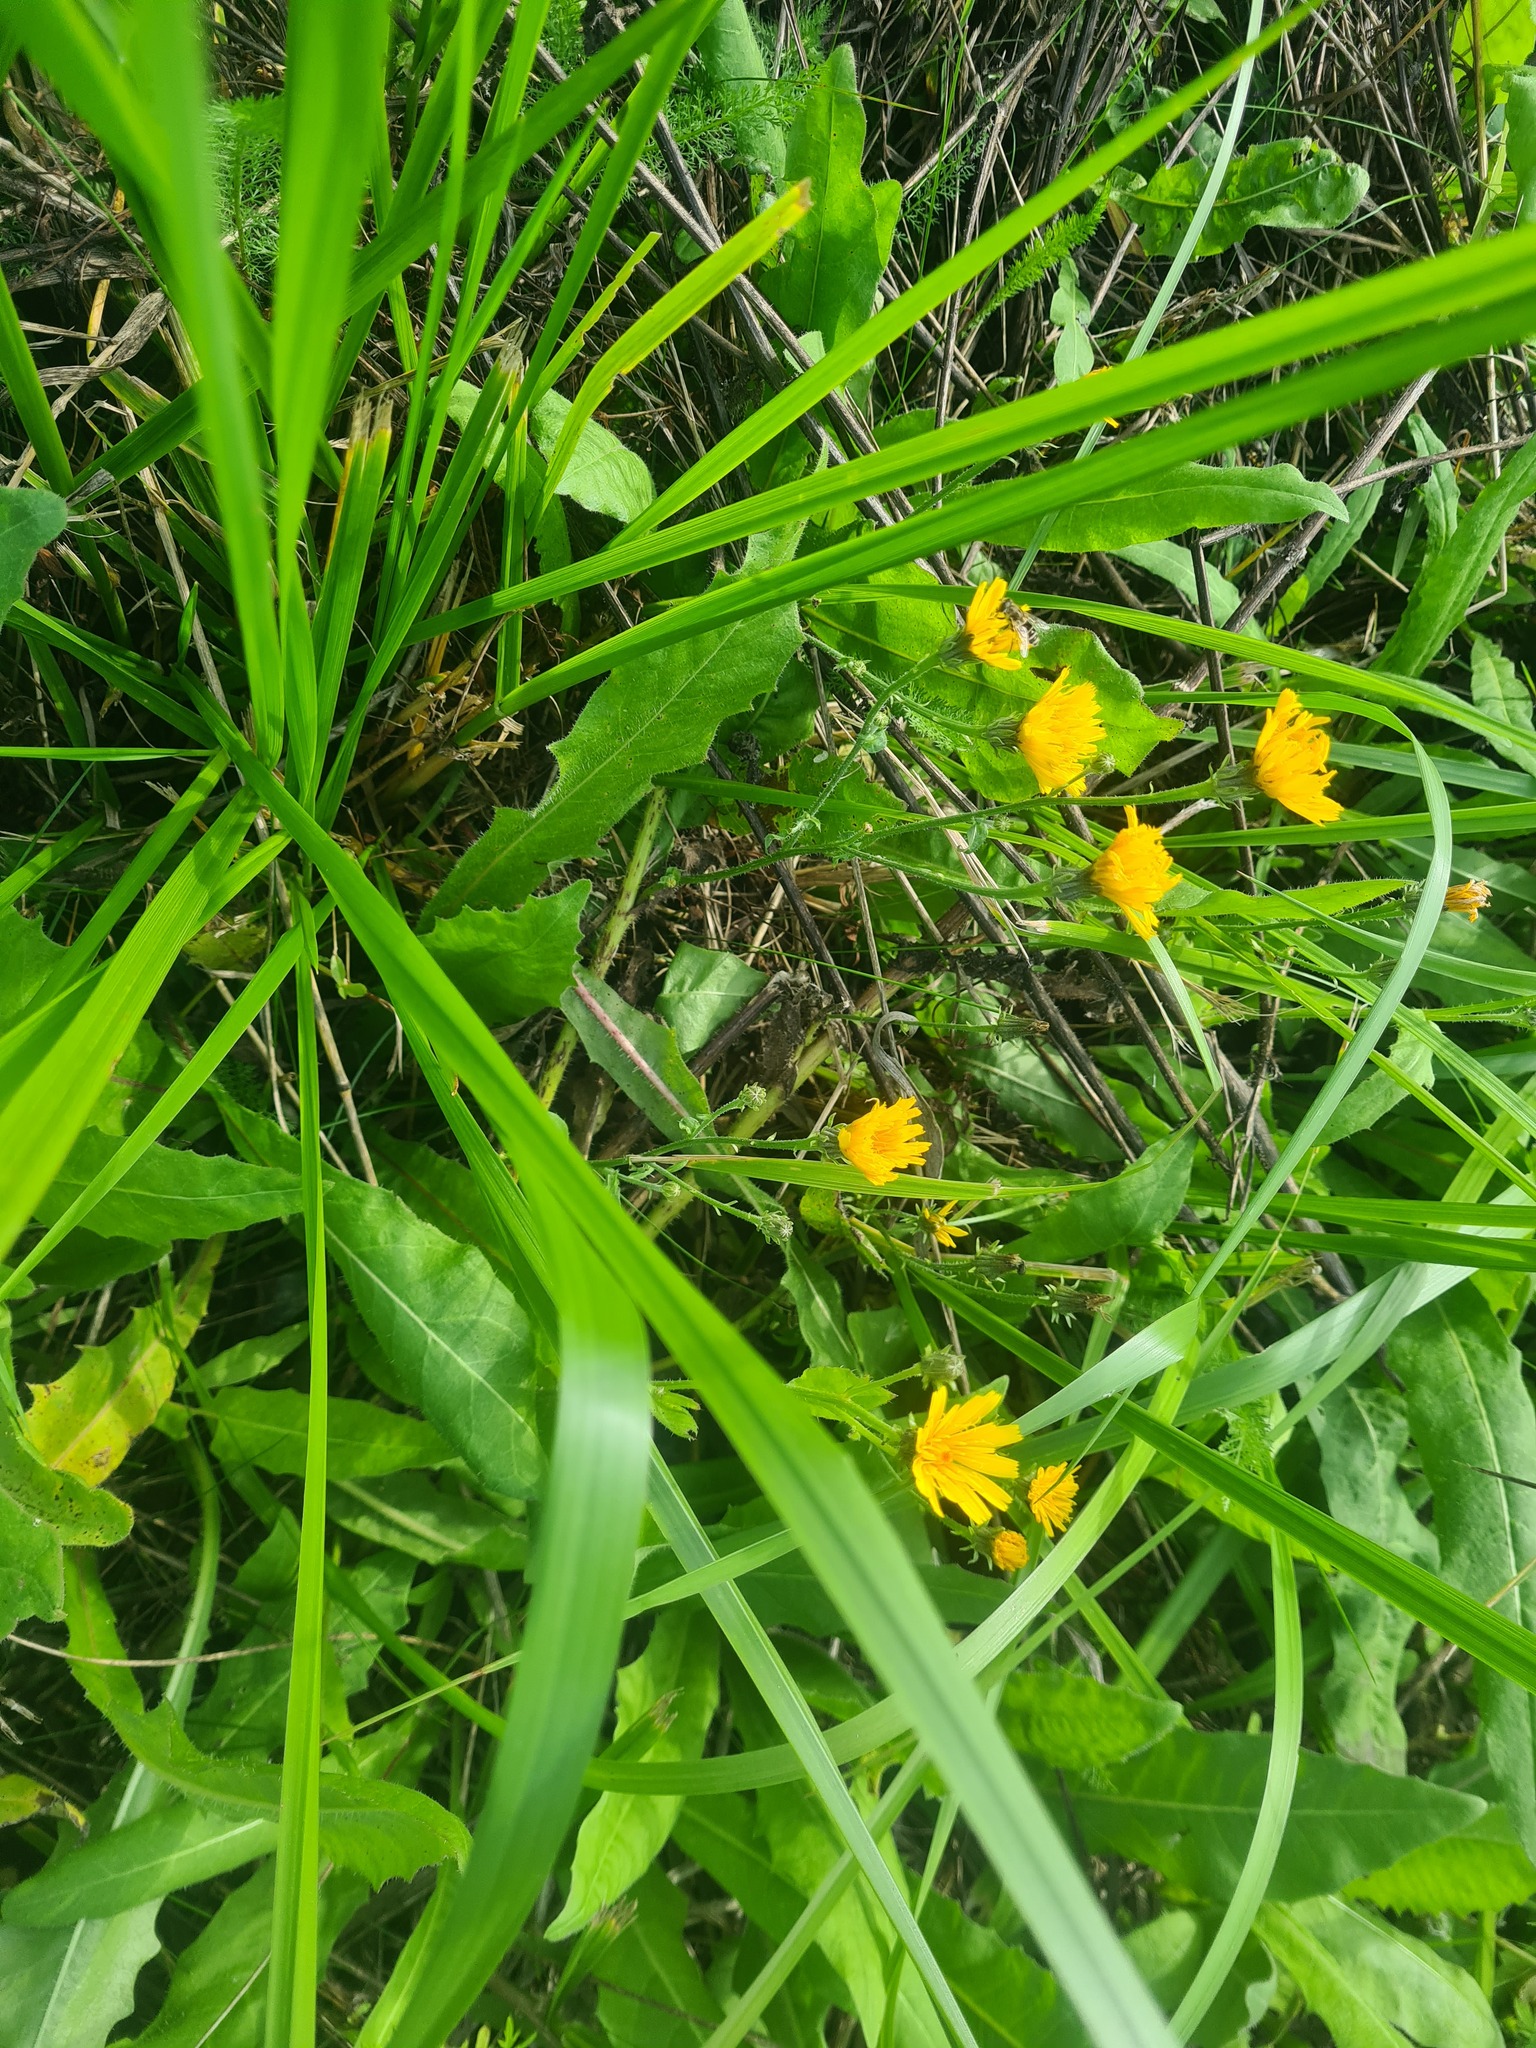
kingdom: Plantae
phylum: Tracheophyta
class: Magnoliopsida
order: Asterales
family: Asteraceae
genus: Picris
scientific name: Picris hieracioides
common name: Hawkweed oxtongue
